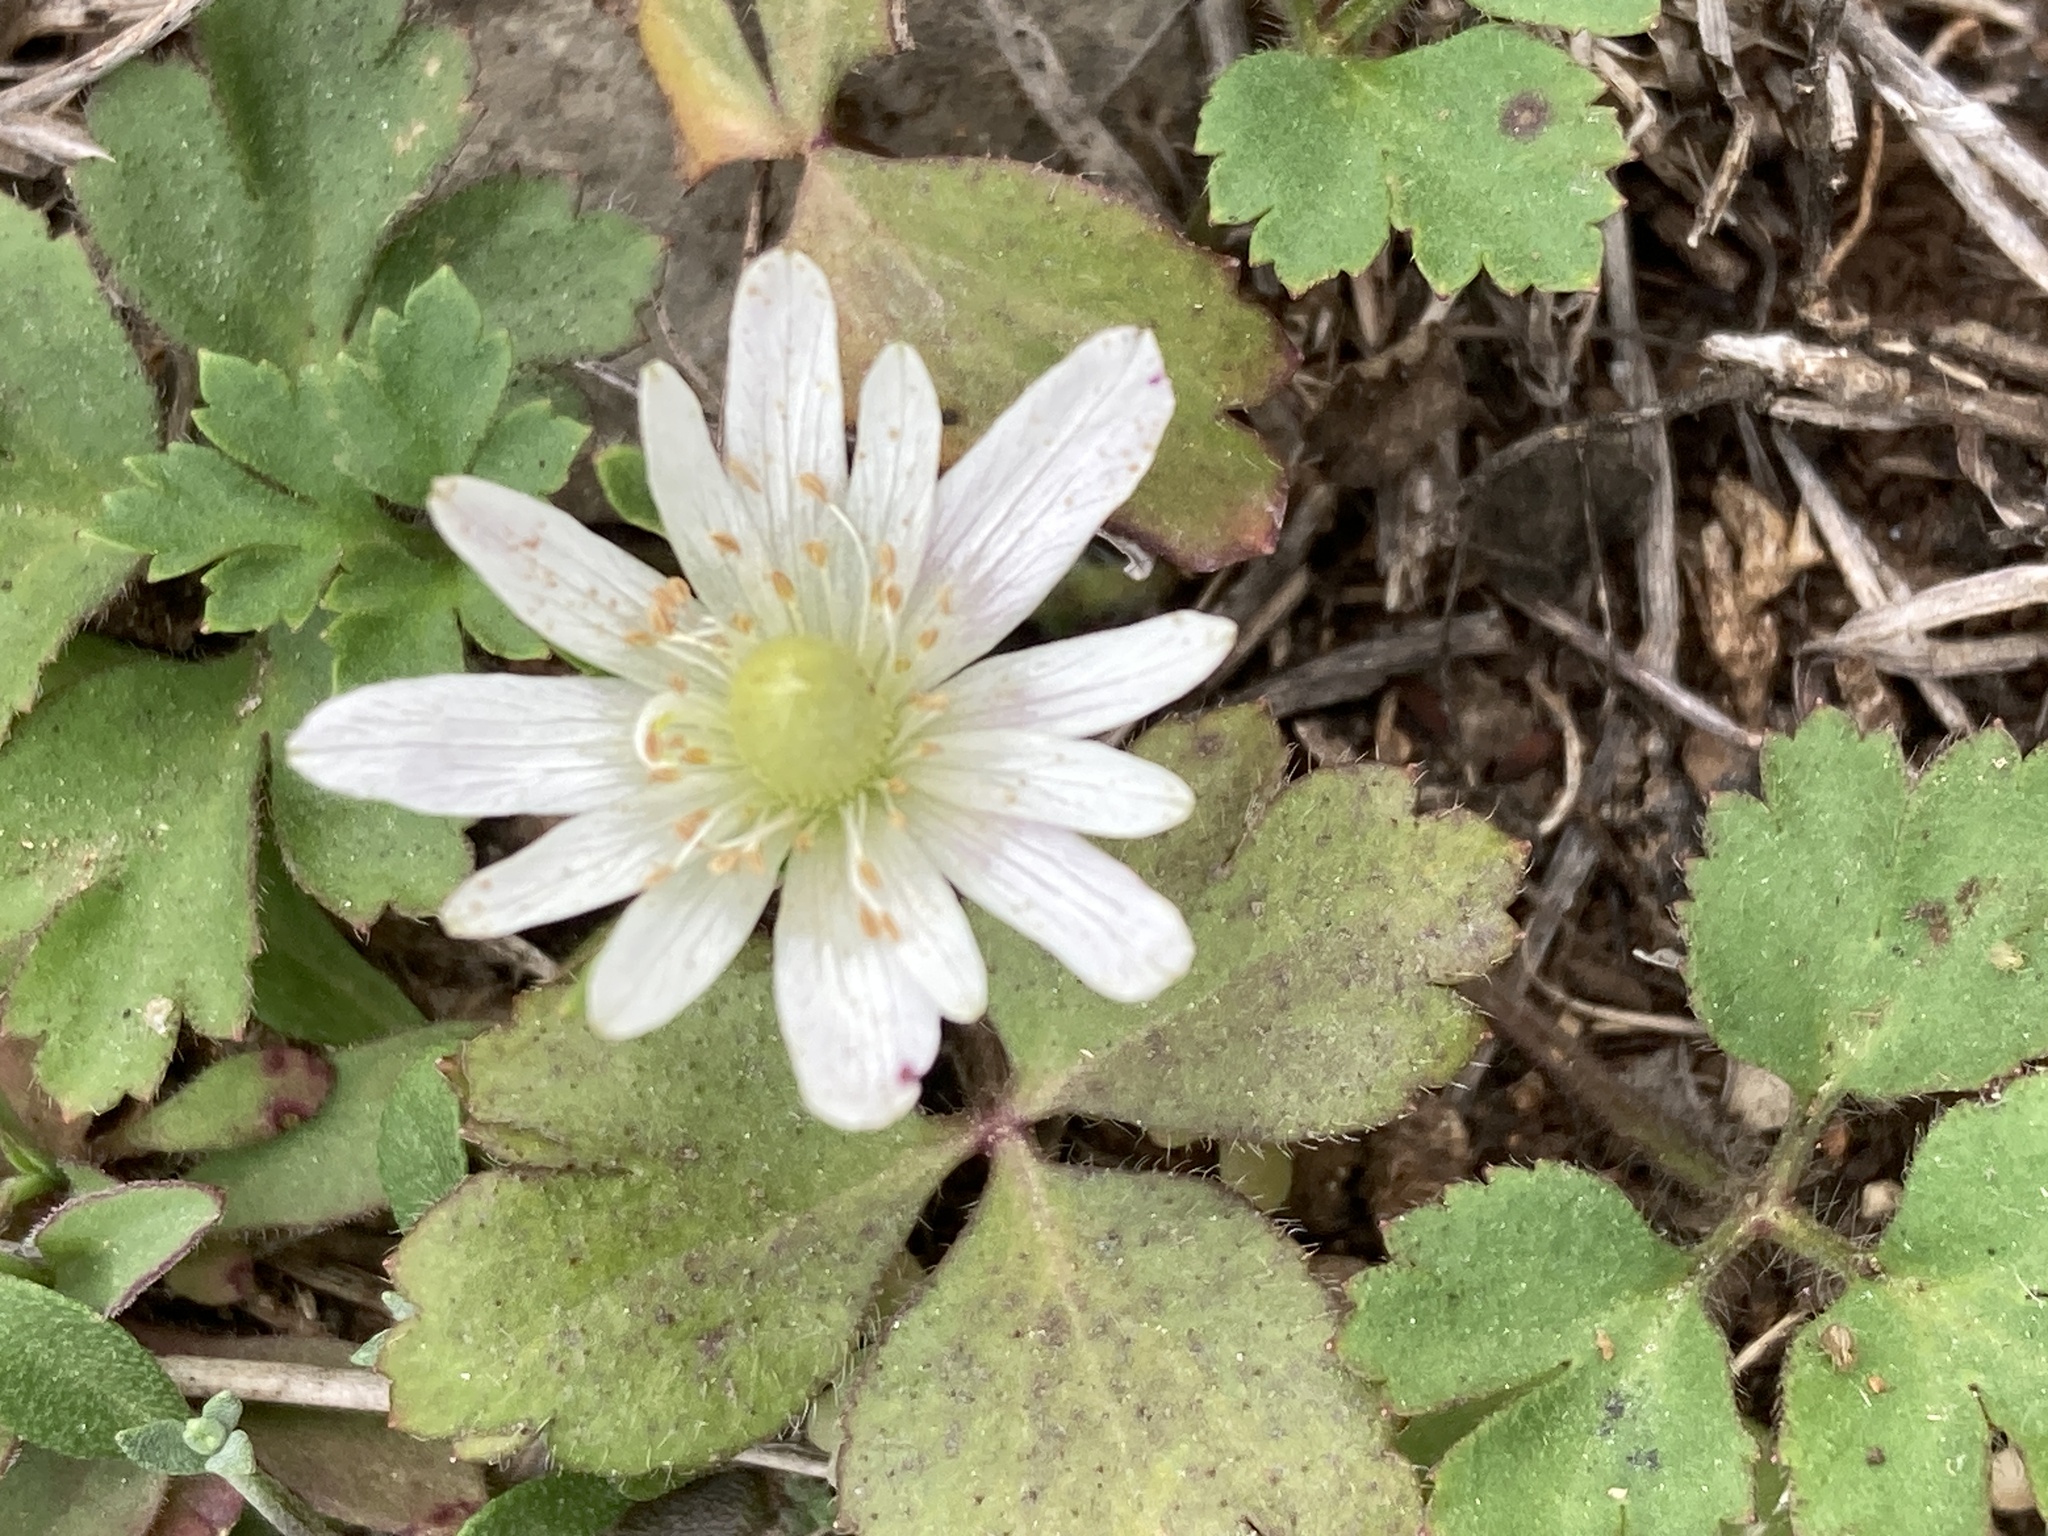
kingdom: Plantae
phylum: Tracheophyta
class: Magnoliopsida
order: Ranunculales
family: Ranunculaceae
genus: Anemone
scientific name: Anemone berlandieri
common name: Ten-petal anemone
